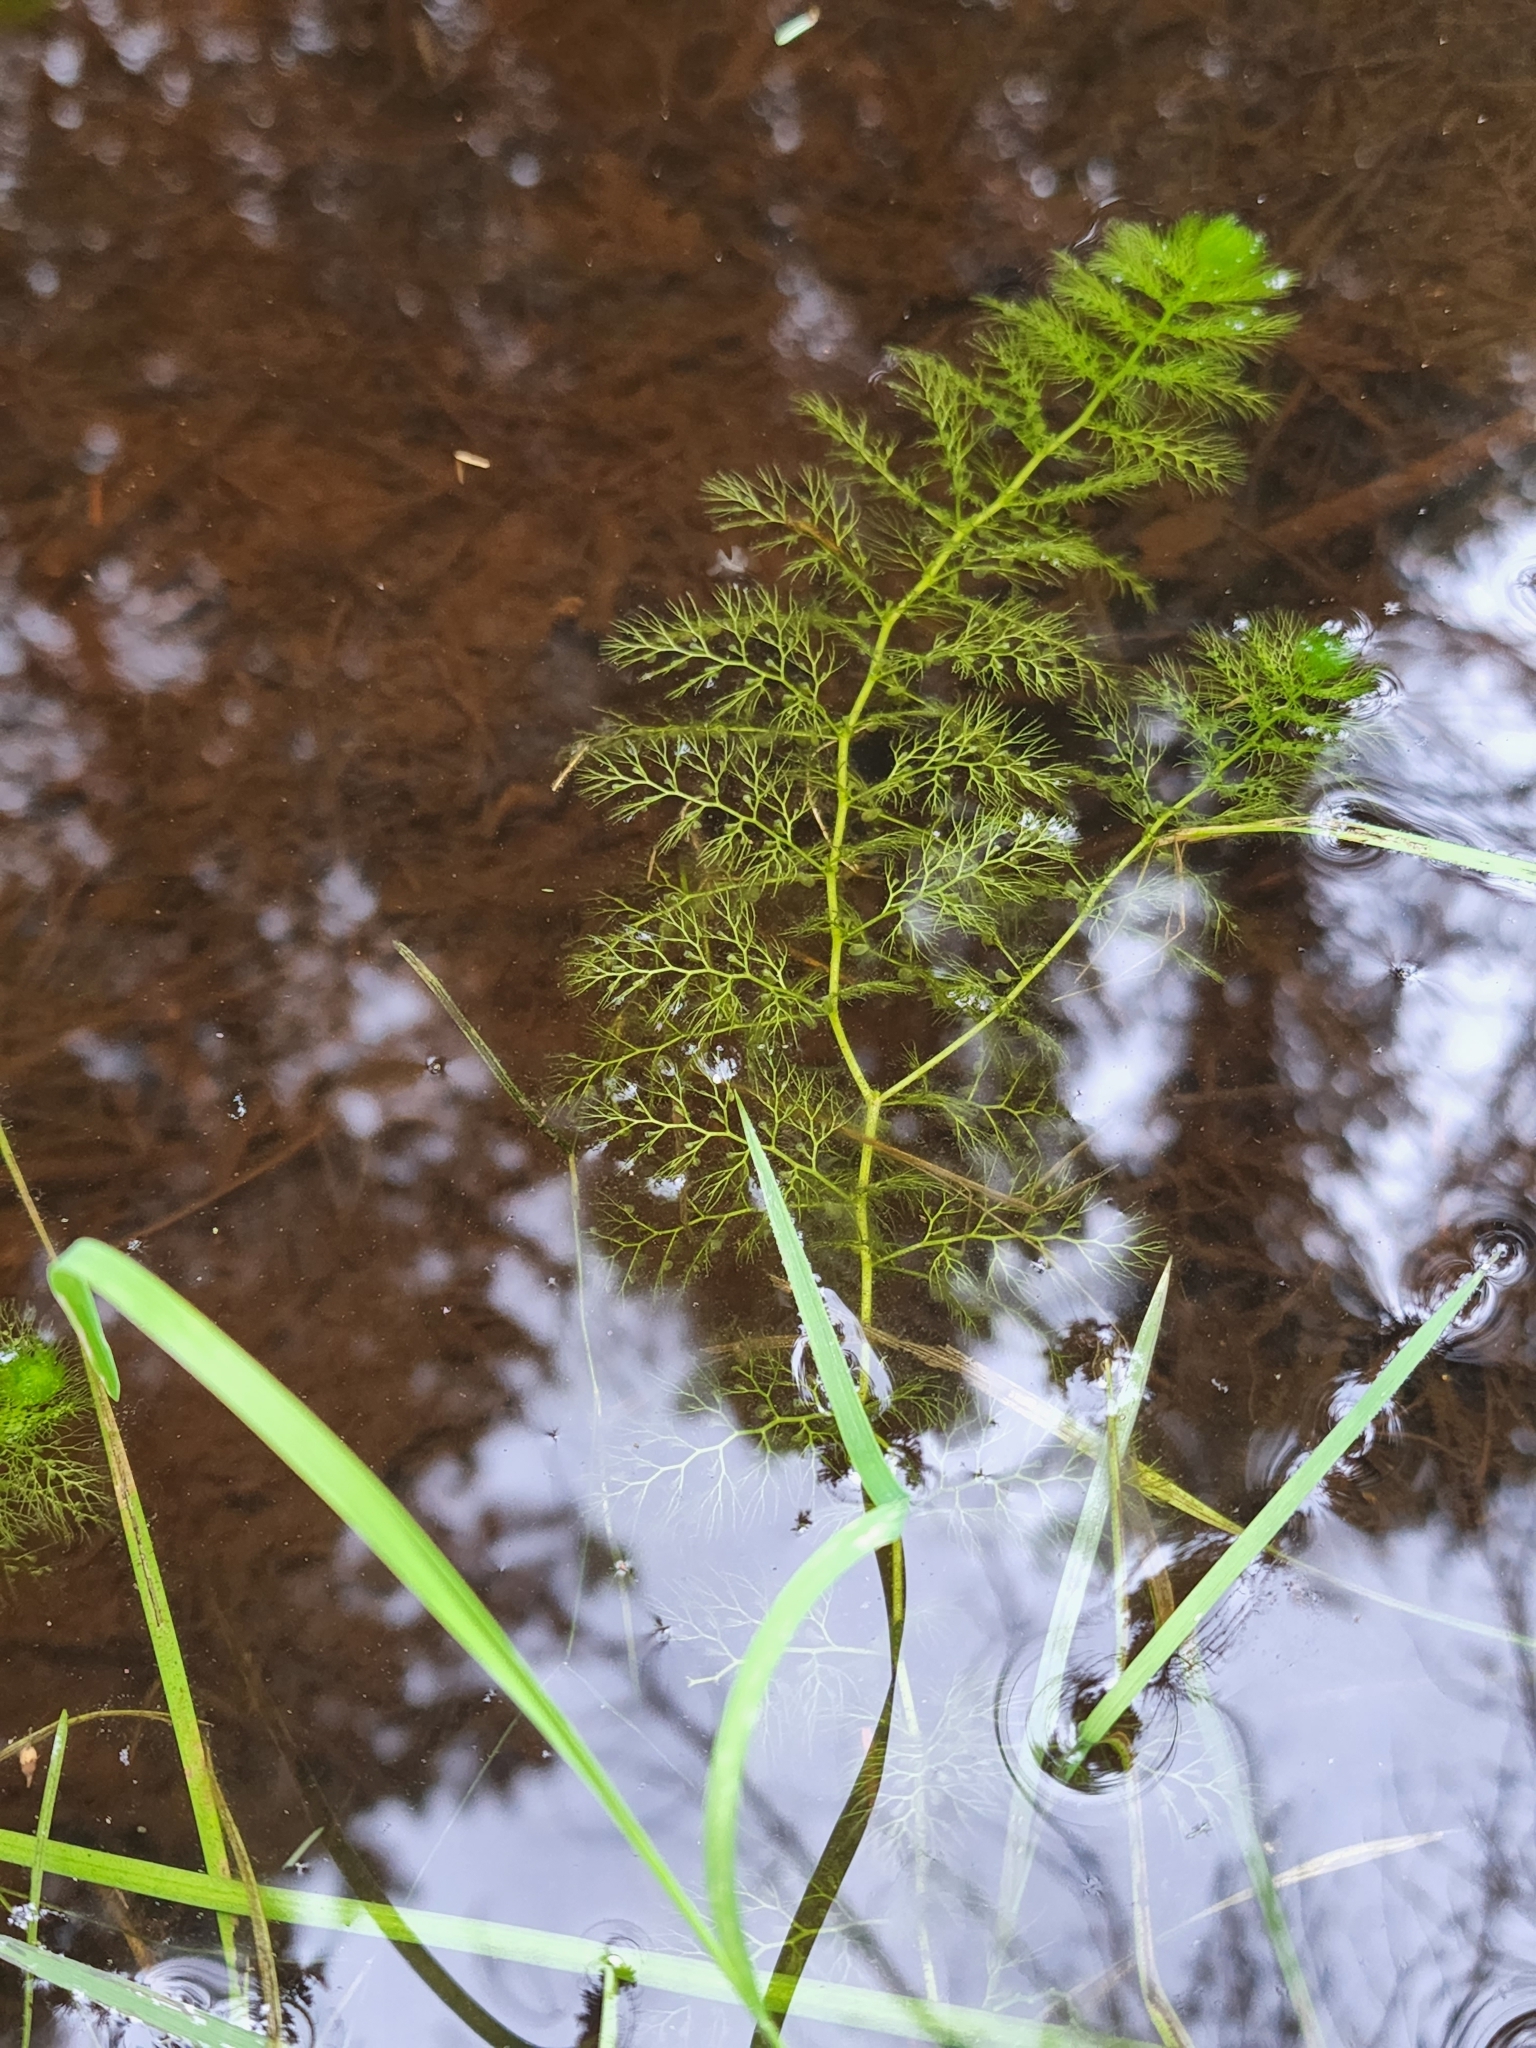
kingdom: Plantae
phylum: Tracheophyta
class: Magnoliopsida
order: Lamiales
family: Lentibulariaceae
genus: Utricularia
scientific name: Utricularia macrorhiza
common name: Common bladderwort
